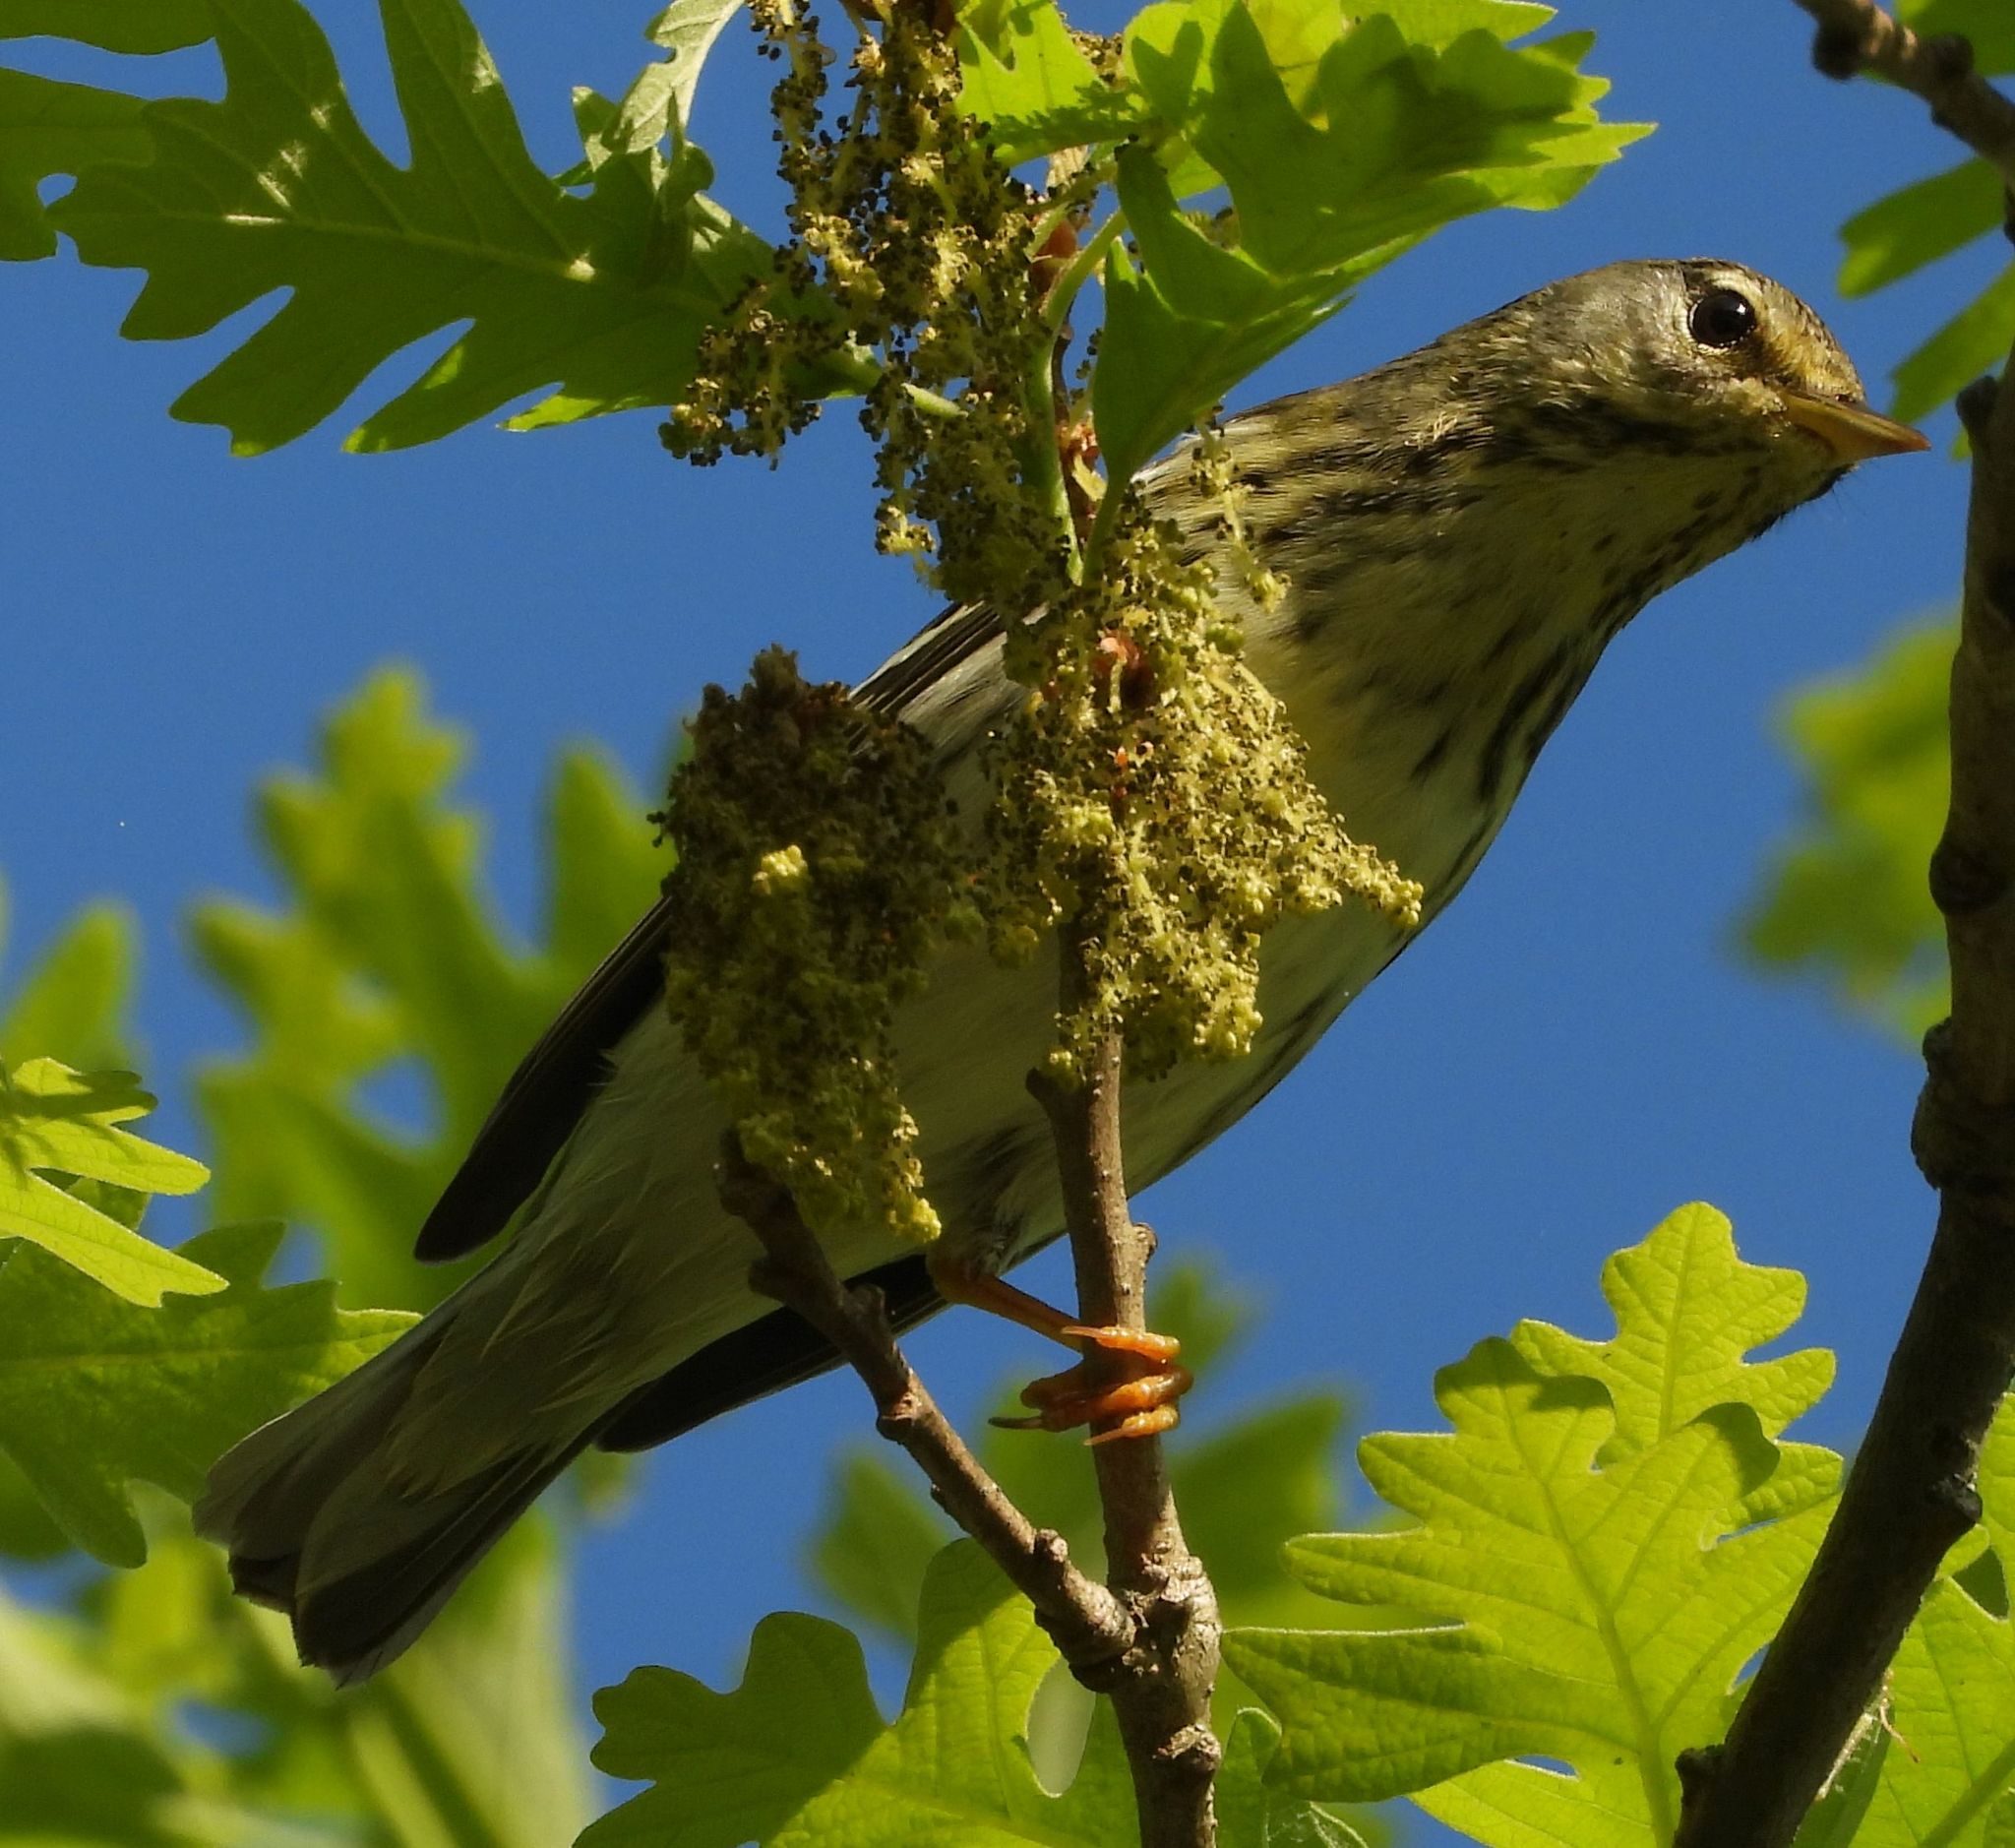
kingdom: Animalia
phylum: Chordata
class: Aves
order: Passeriformes
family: Parulidae
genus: Setophaga
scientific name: Setophaga striata
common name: Blackpoll warbler
